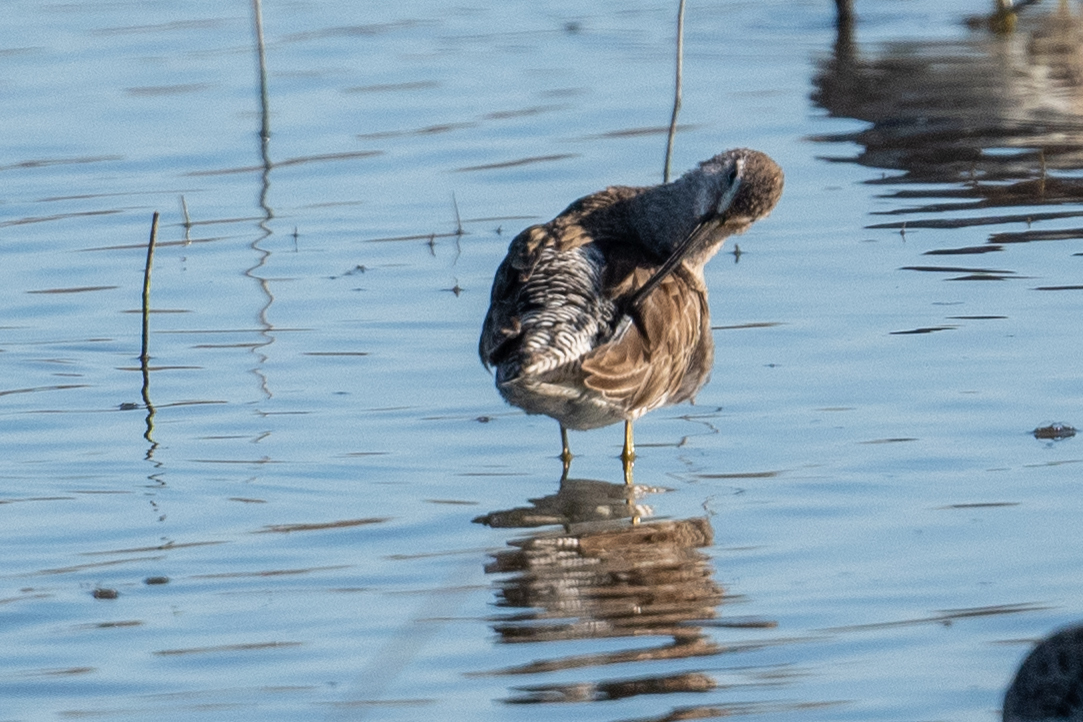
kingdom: Animalia
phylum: Chordata
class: Aves
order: Charadriiformes
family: Scolopacidae
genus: Tringa
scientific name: Tringa melanoleuca
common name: Greater yellowlegs
